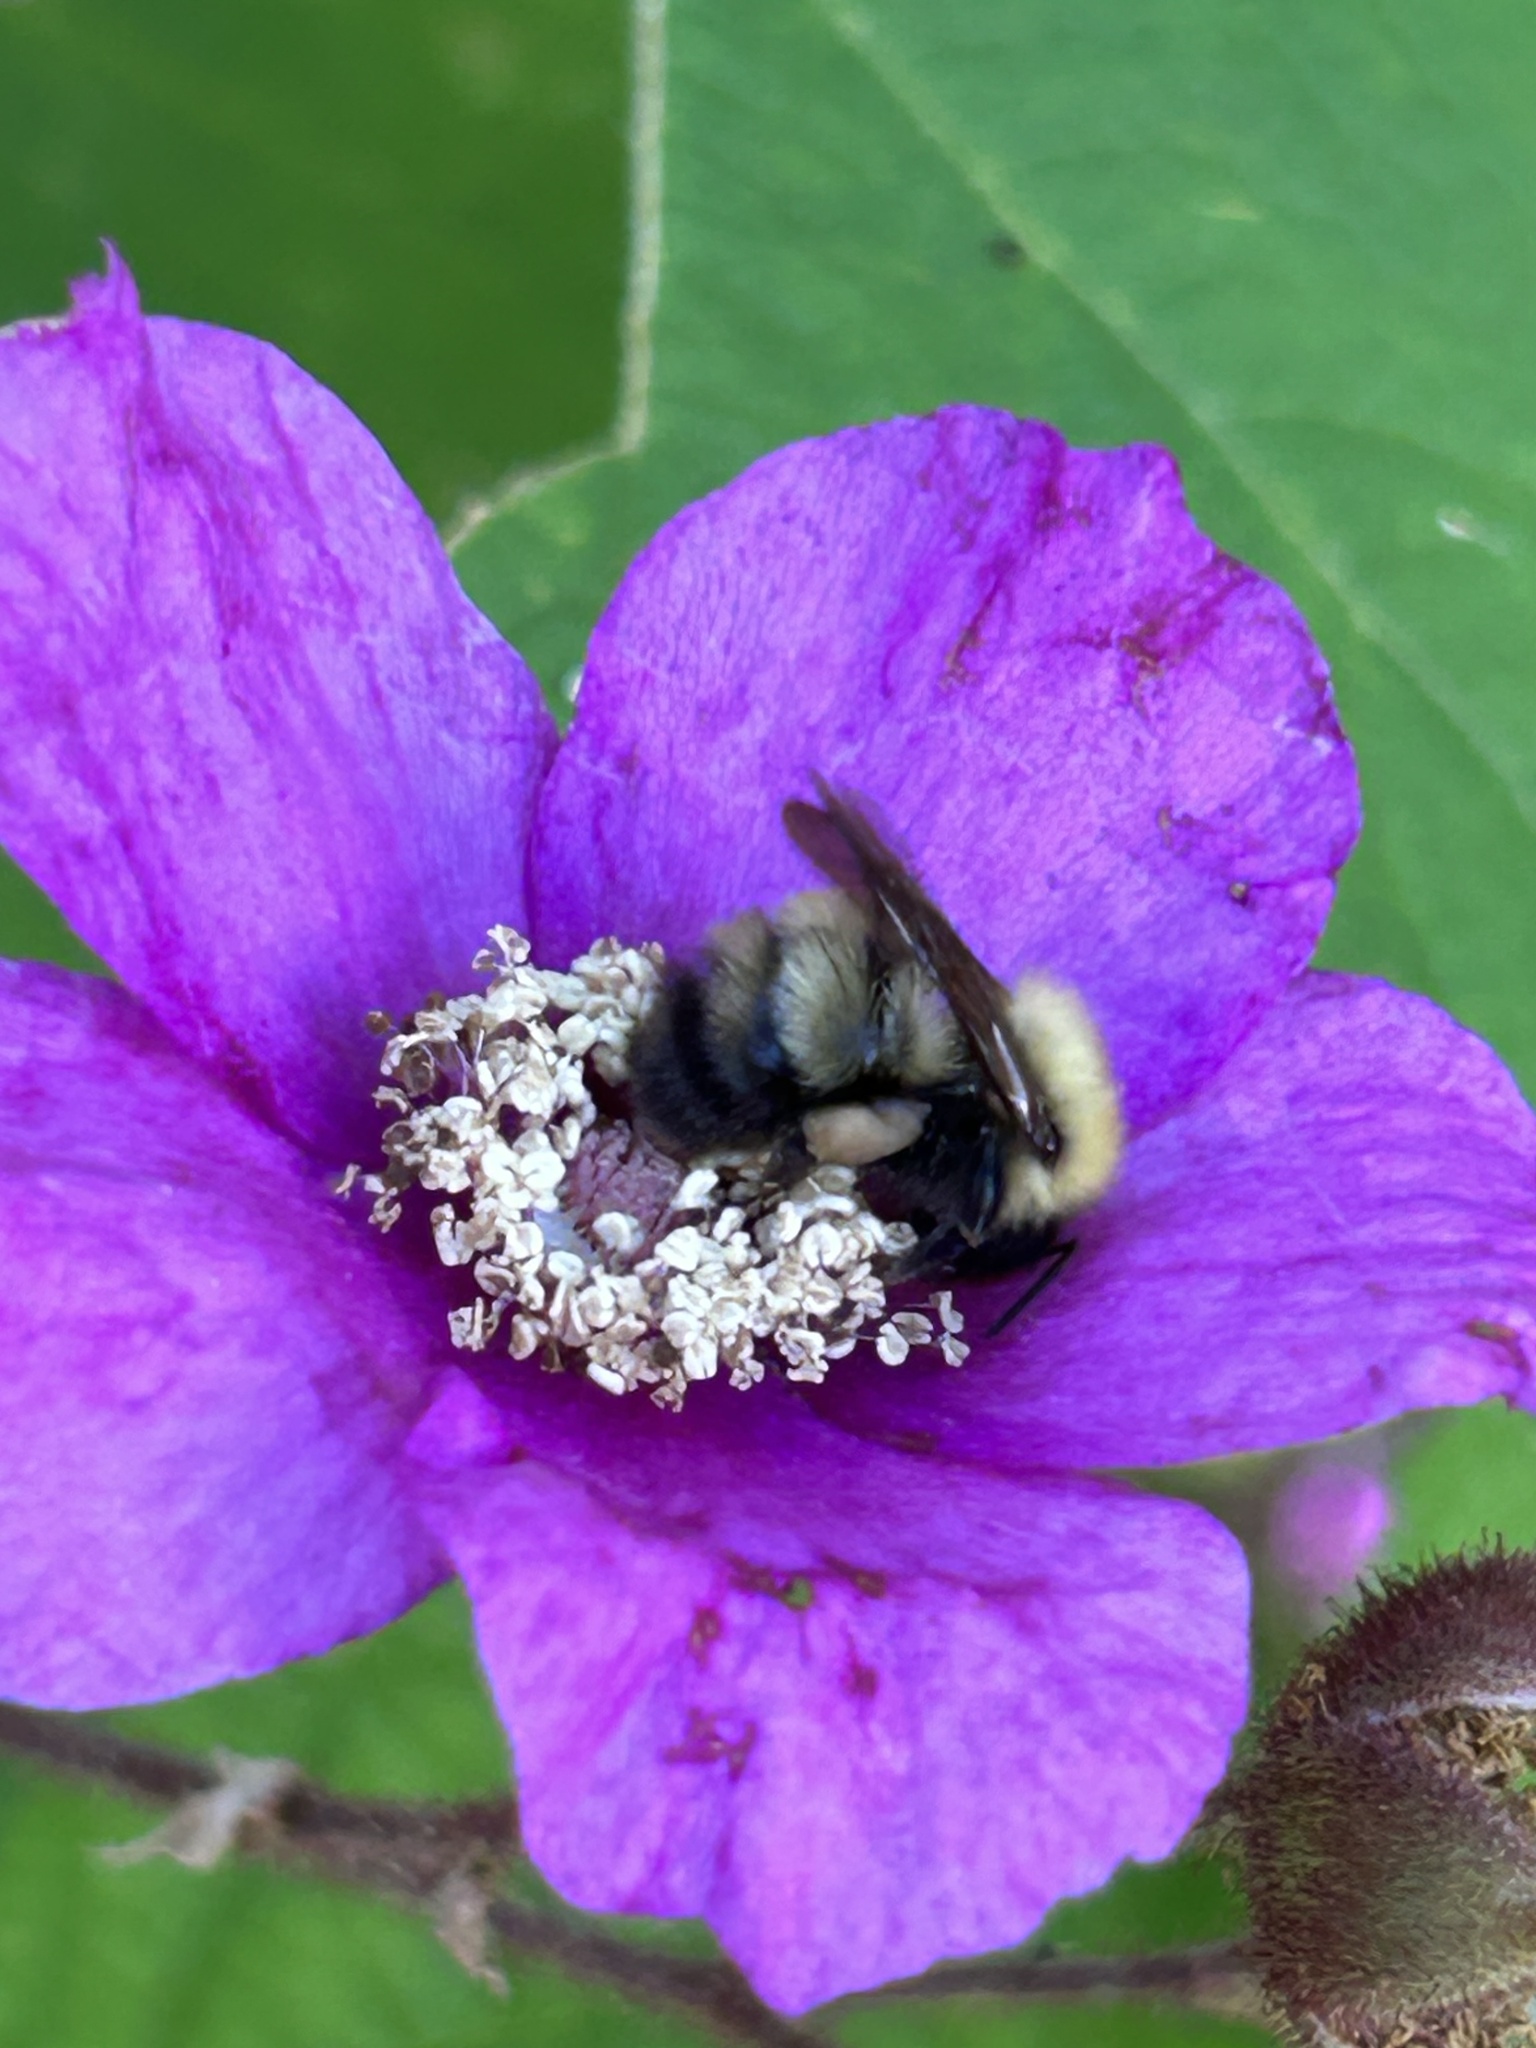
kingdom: Animalia
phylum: Arthropoda
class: Insecta
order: Hymenoptera
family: Apidae
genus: Bombus
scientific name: Bombus perplexus
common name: Confusing bumble bee
